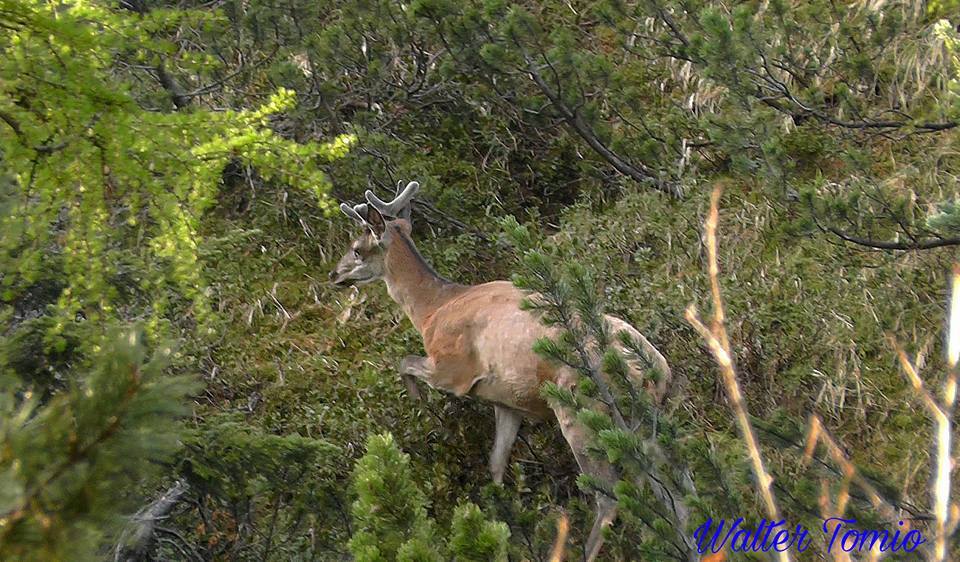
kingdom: Animalia
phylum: Chordata
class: Mammalia
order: Artiodactyla
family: Cervidae
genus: Cervus
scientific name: Cervus elaphus
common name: Red deer
